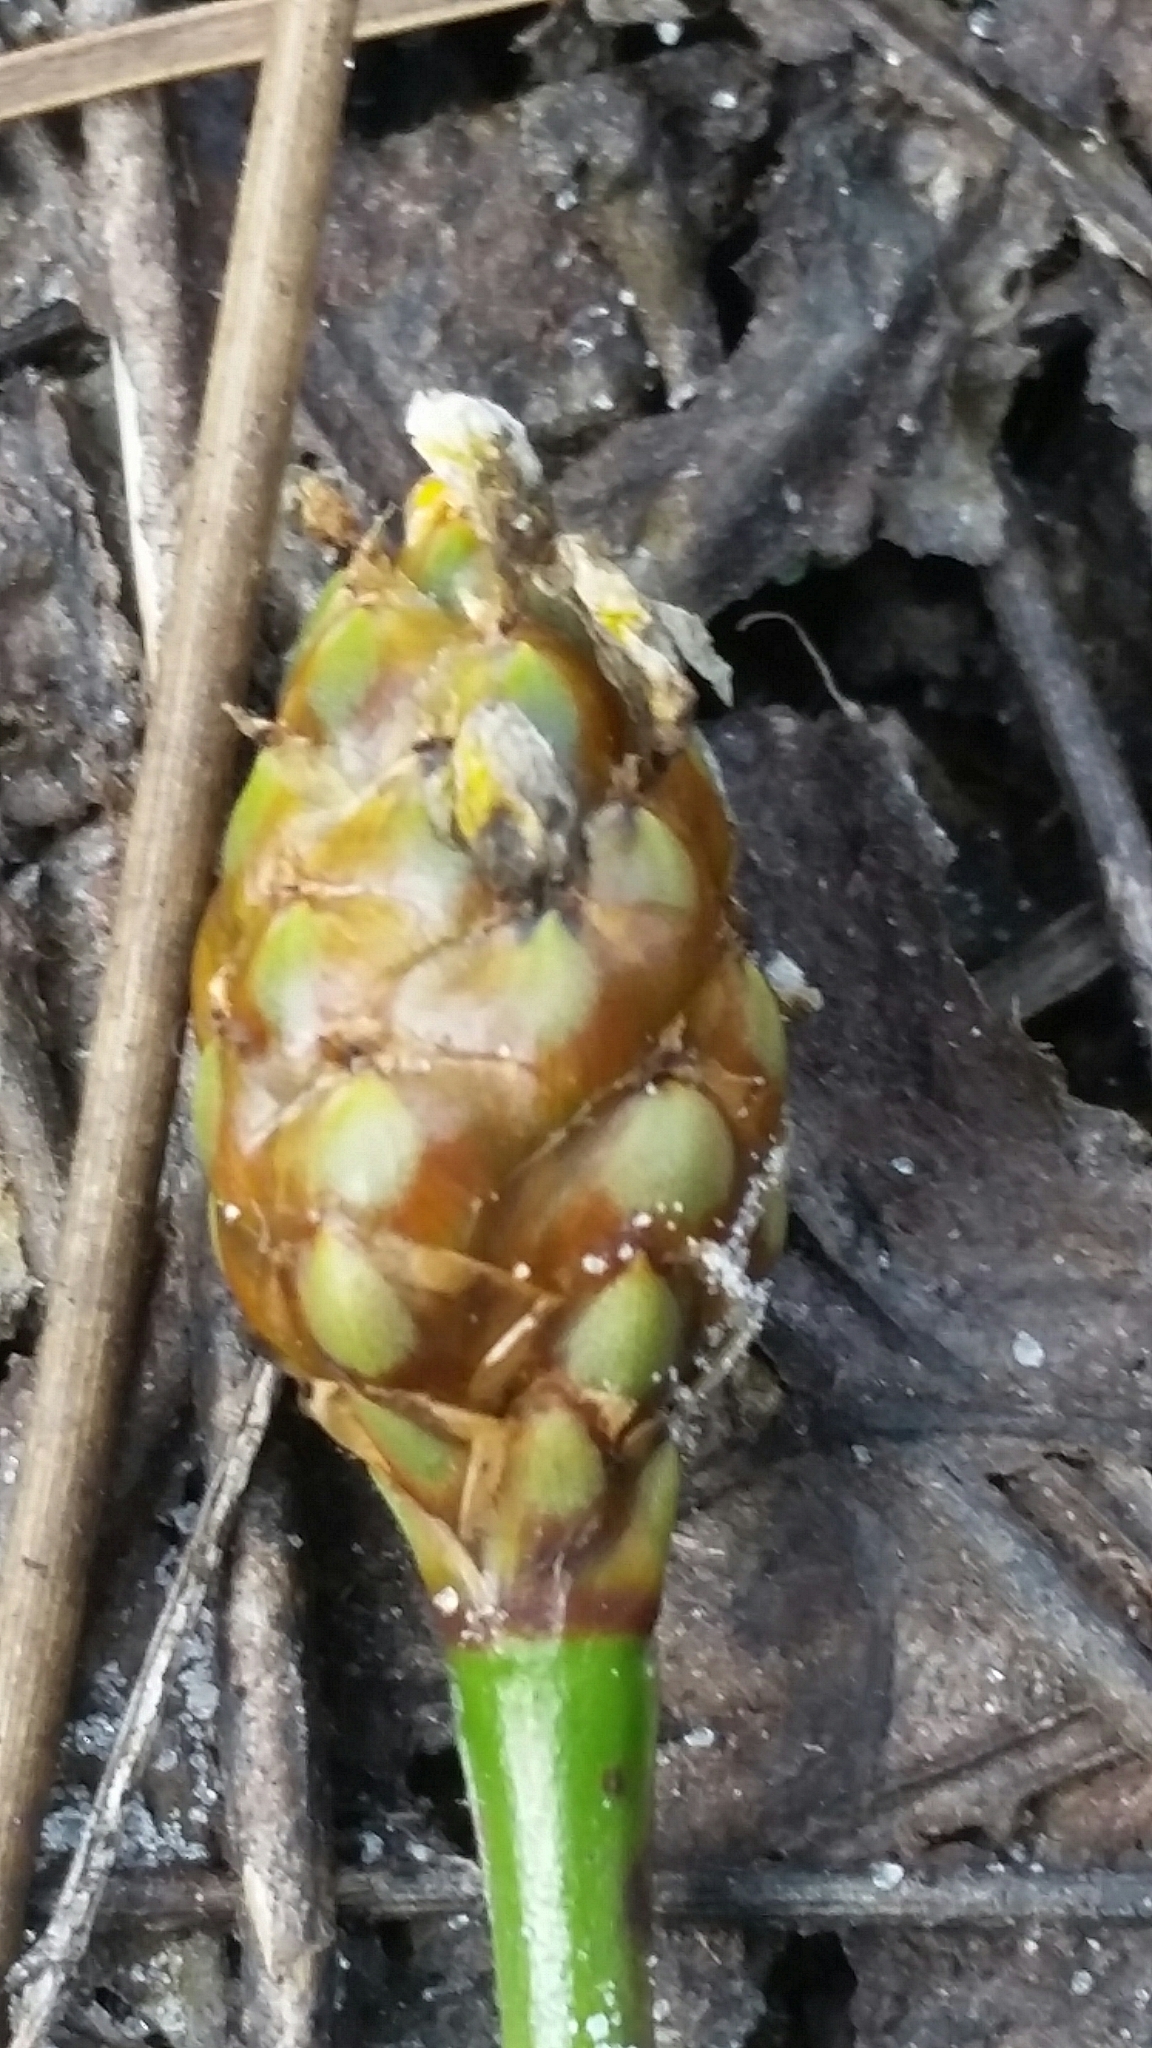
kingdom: Plantae
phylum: Tracheophyta
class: Liliopsida
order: Poales
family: Xyridaceae
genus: Xyris
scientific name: Xyris smalliana
